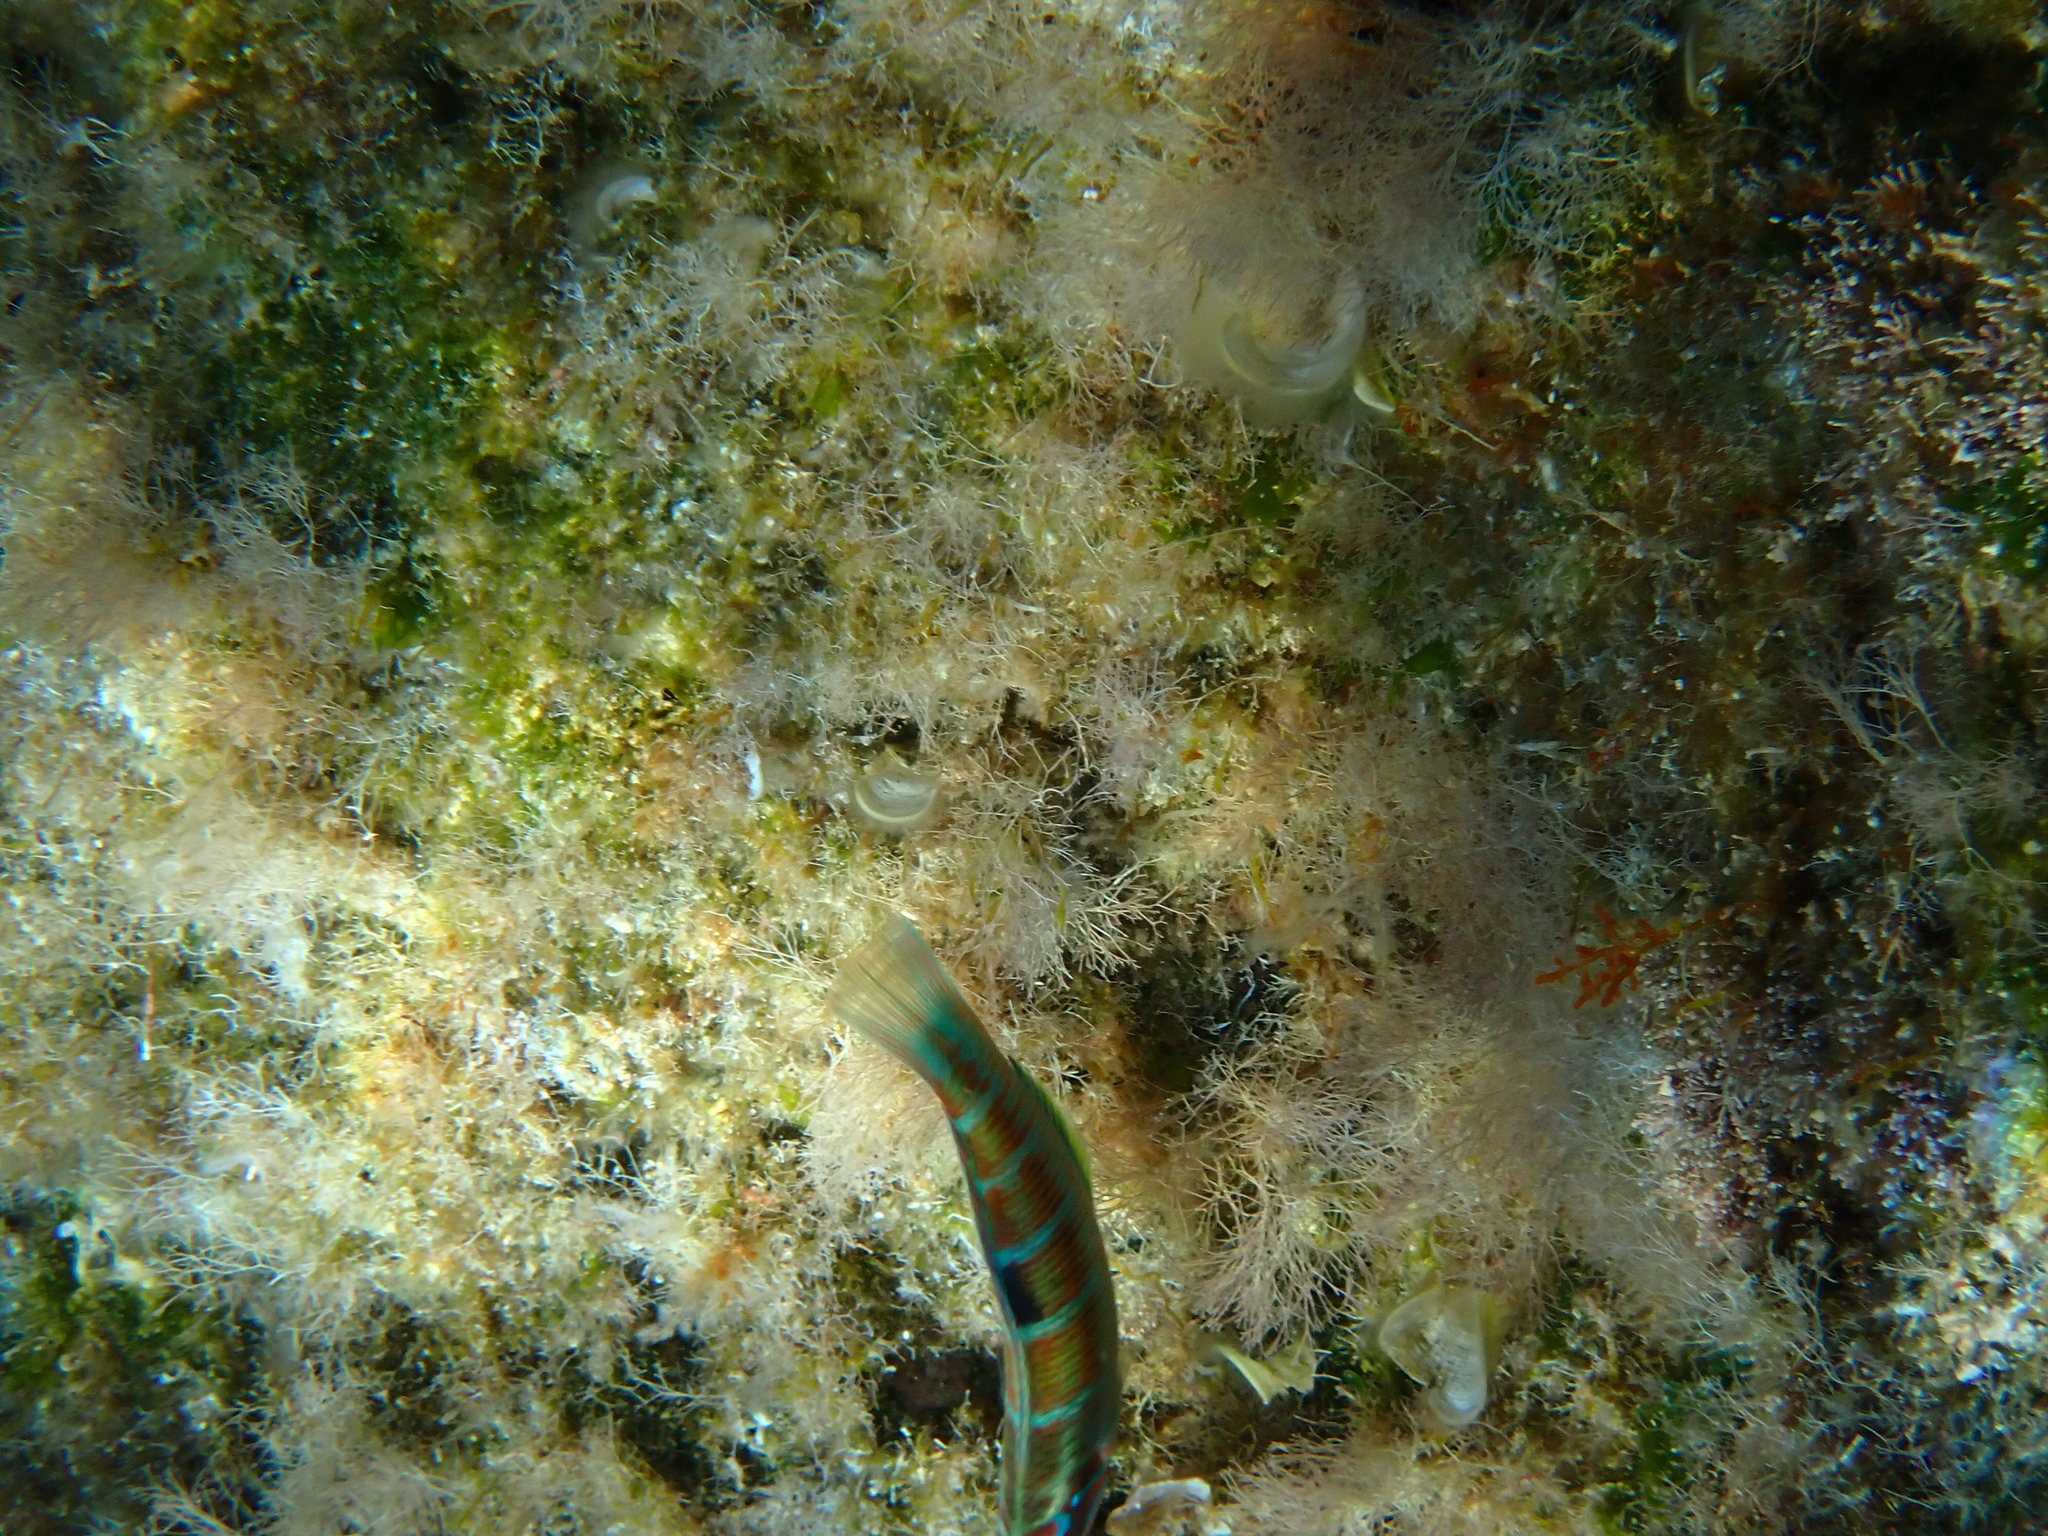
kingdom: Animalia
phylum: Chordata
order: Perciformes
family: Labridae
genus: Thalassoma
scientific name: Thalassoma pavo
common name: Ornate wrasse
